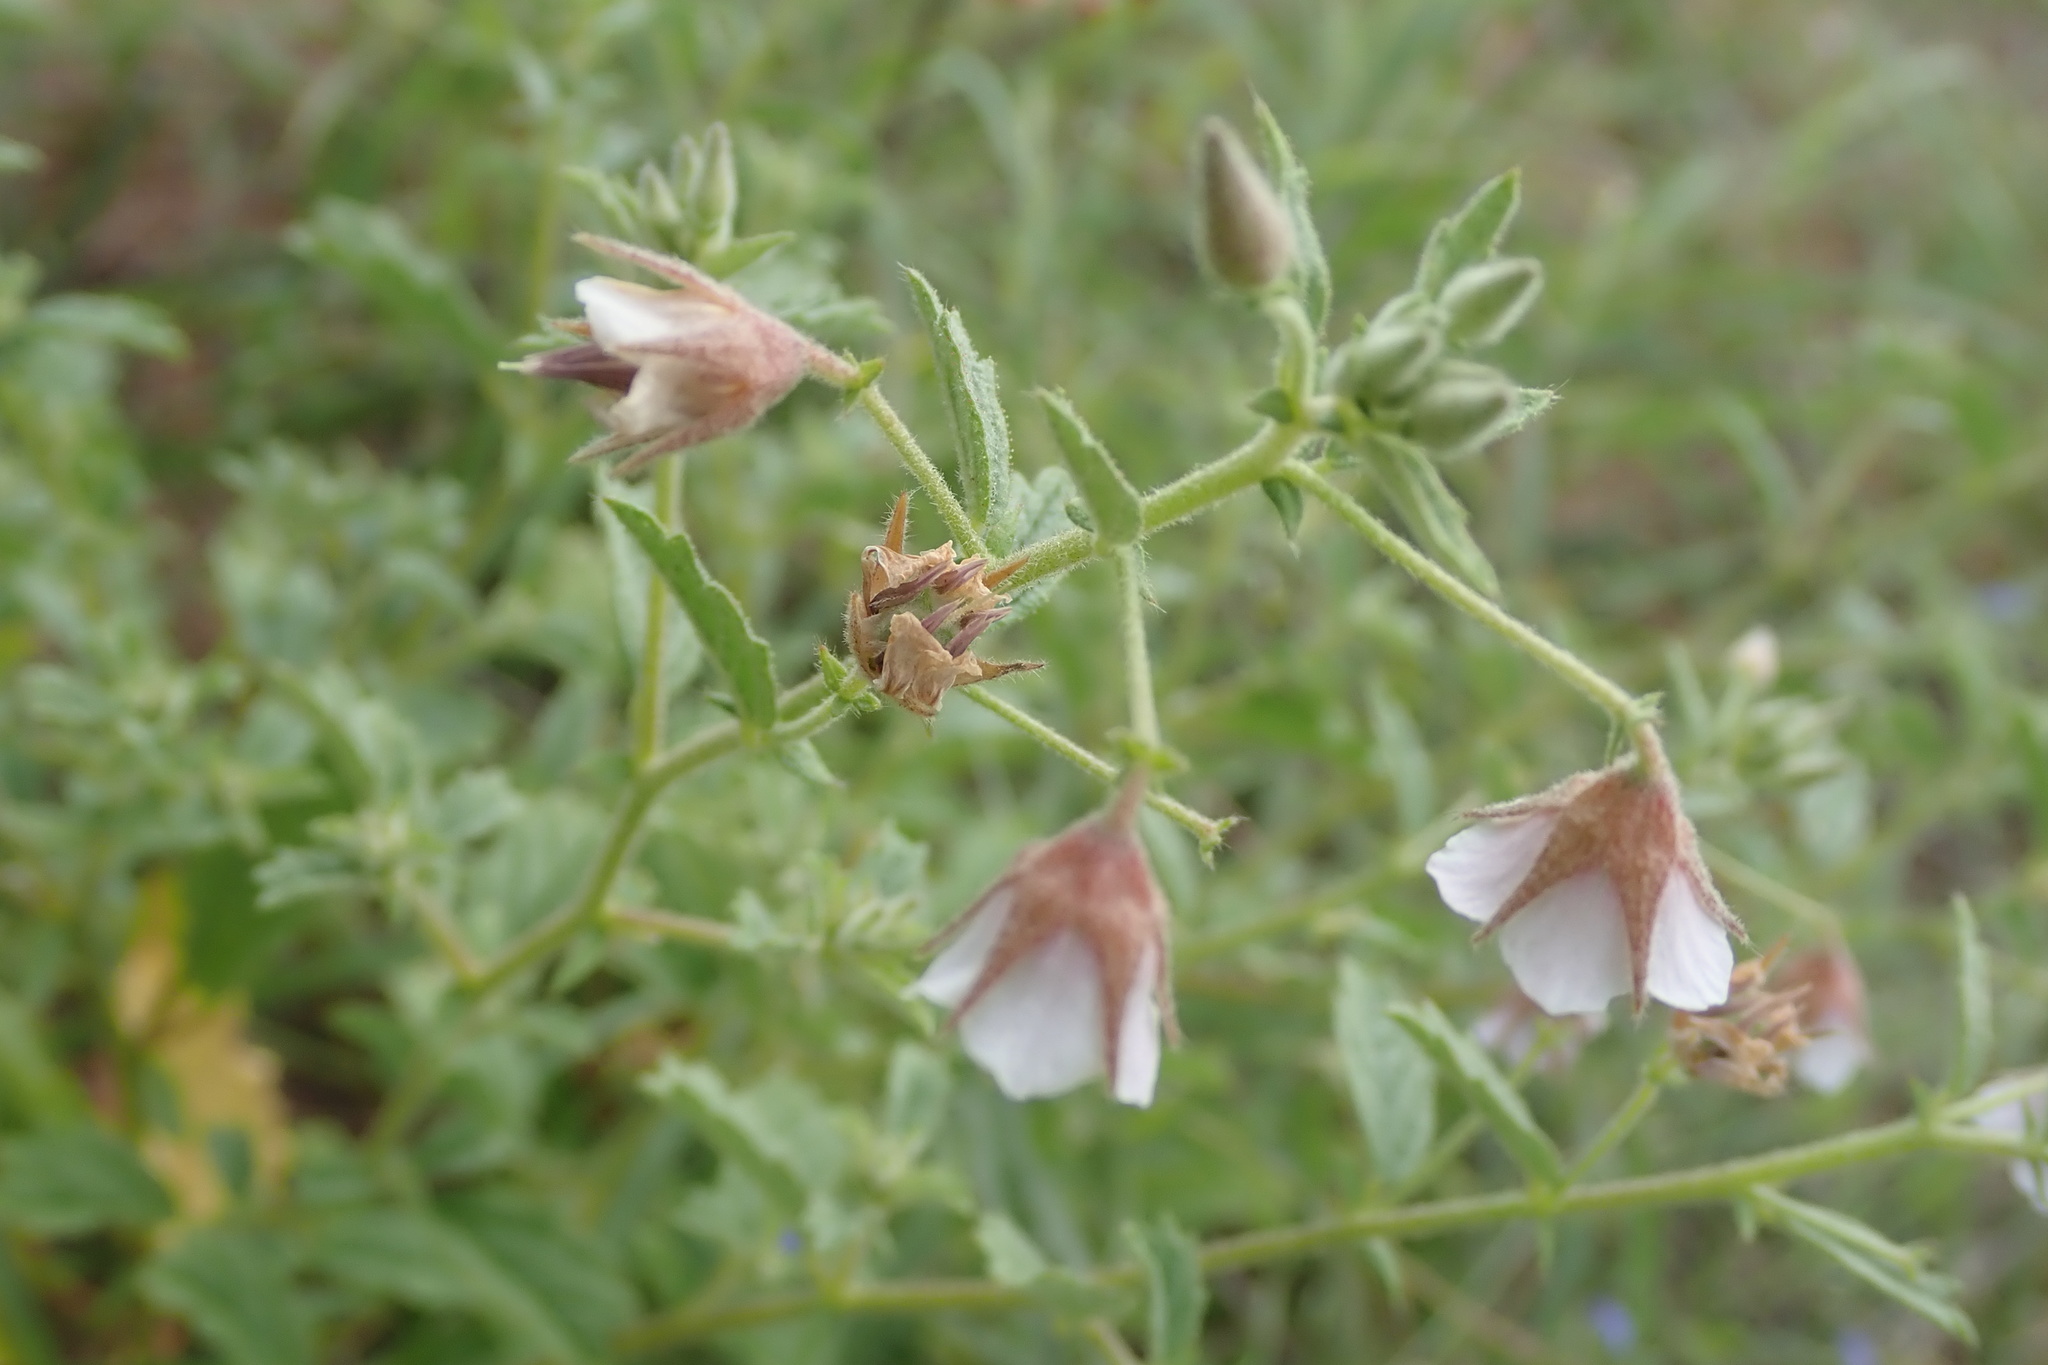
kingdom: Plantae
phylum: Tracheophyta
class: Magnoliopsida
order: Malvales
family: Malvaceae
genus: Hermannia
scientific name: Hermannia boraginiflora
